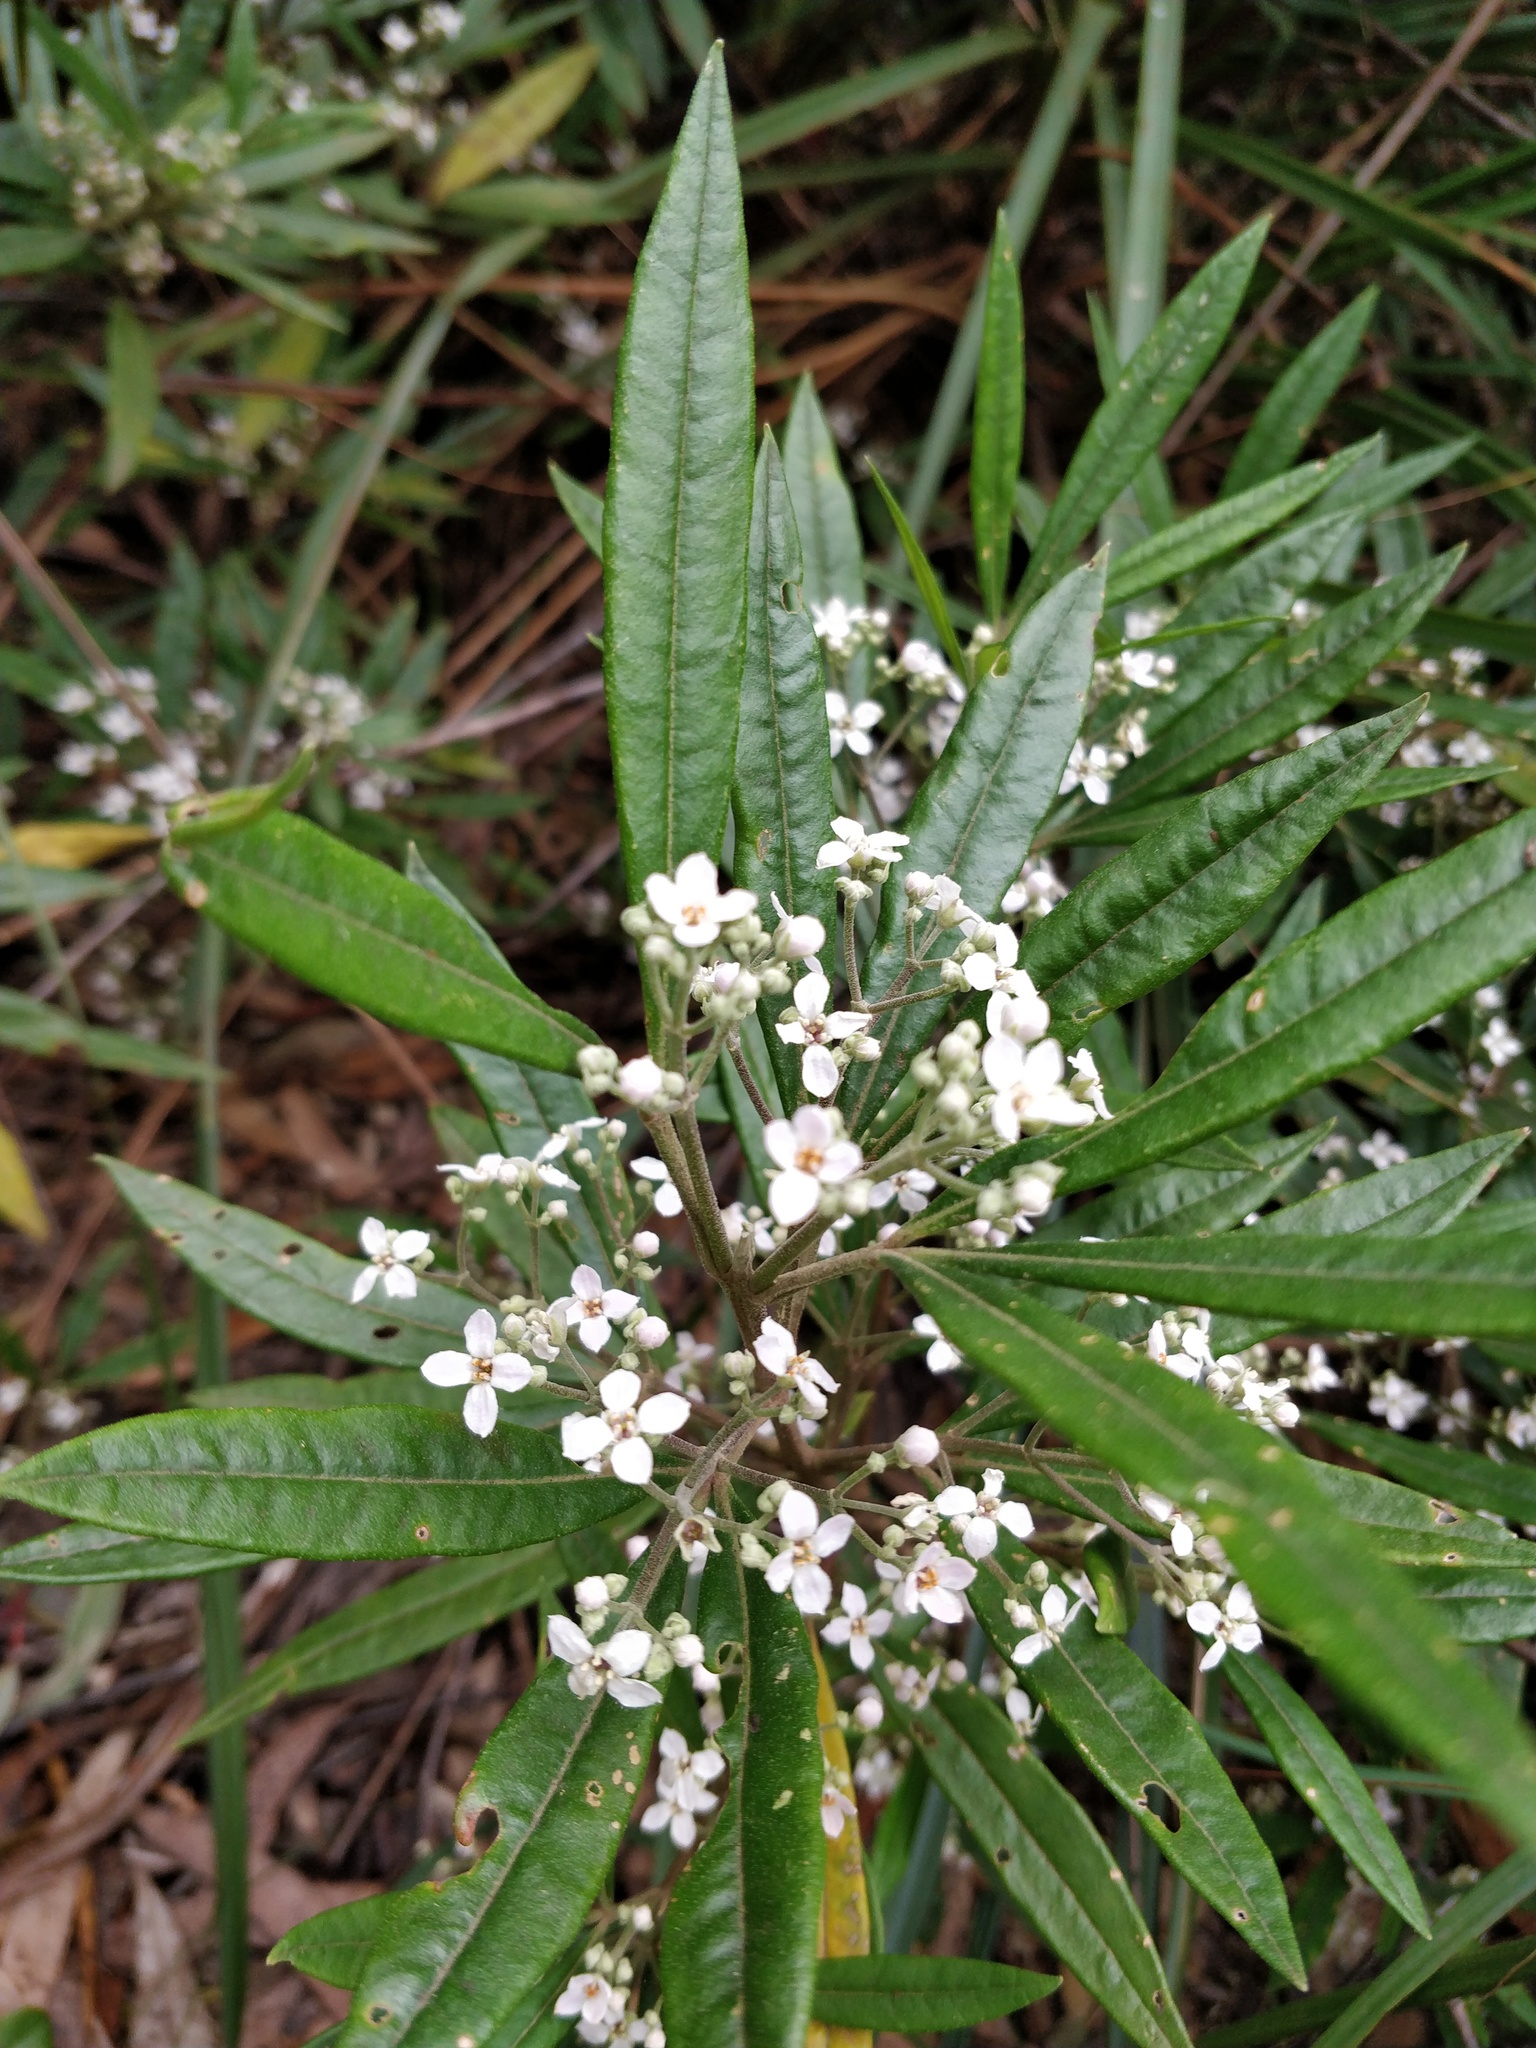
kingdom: Plantae
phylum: Tracheophyta
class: Magnoliopsida
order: Sapindales
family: Rutaceae
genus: Zieria
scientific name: Zieria arborescens
